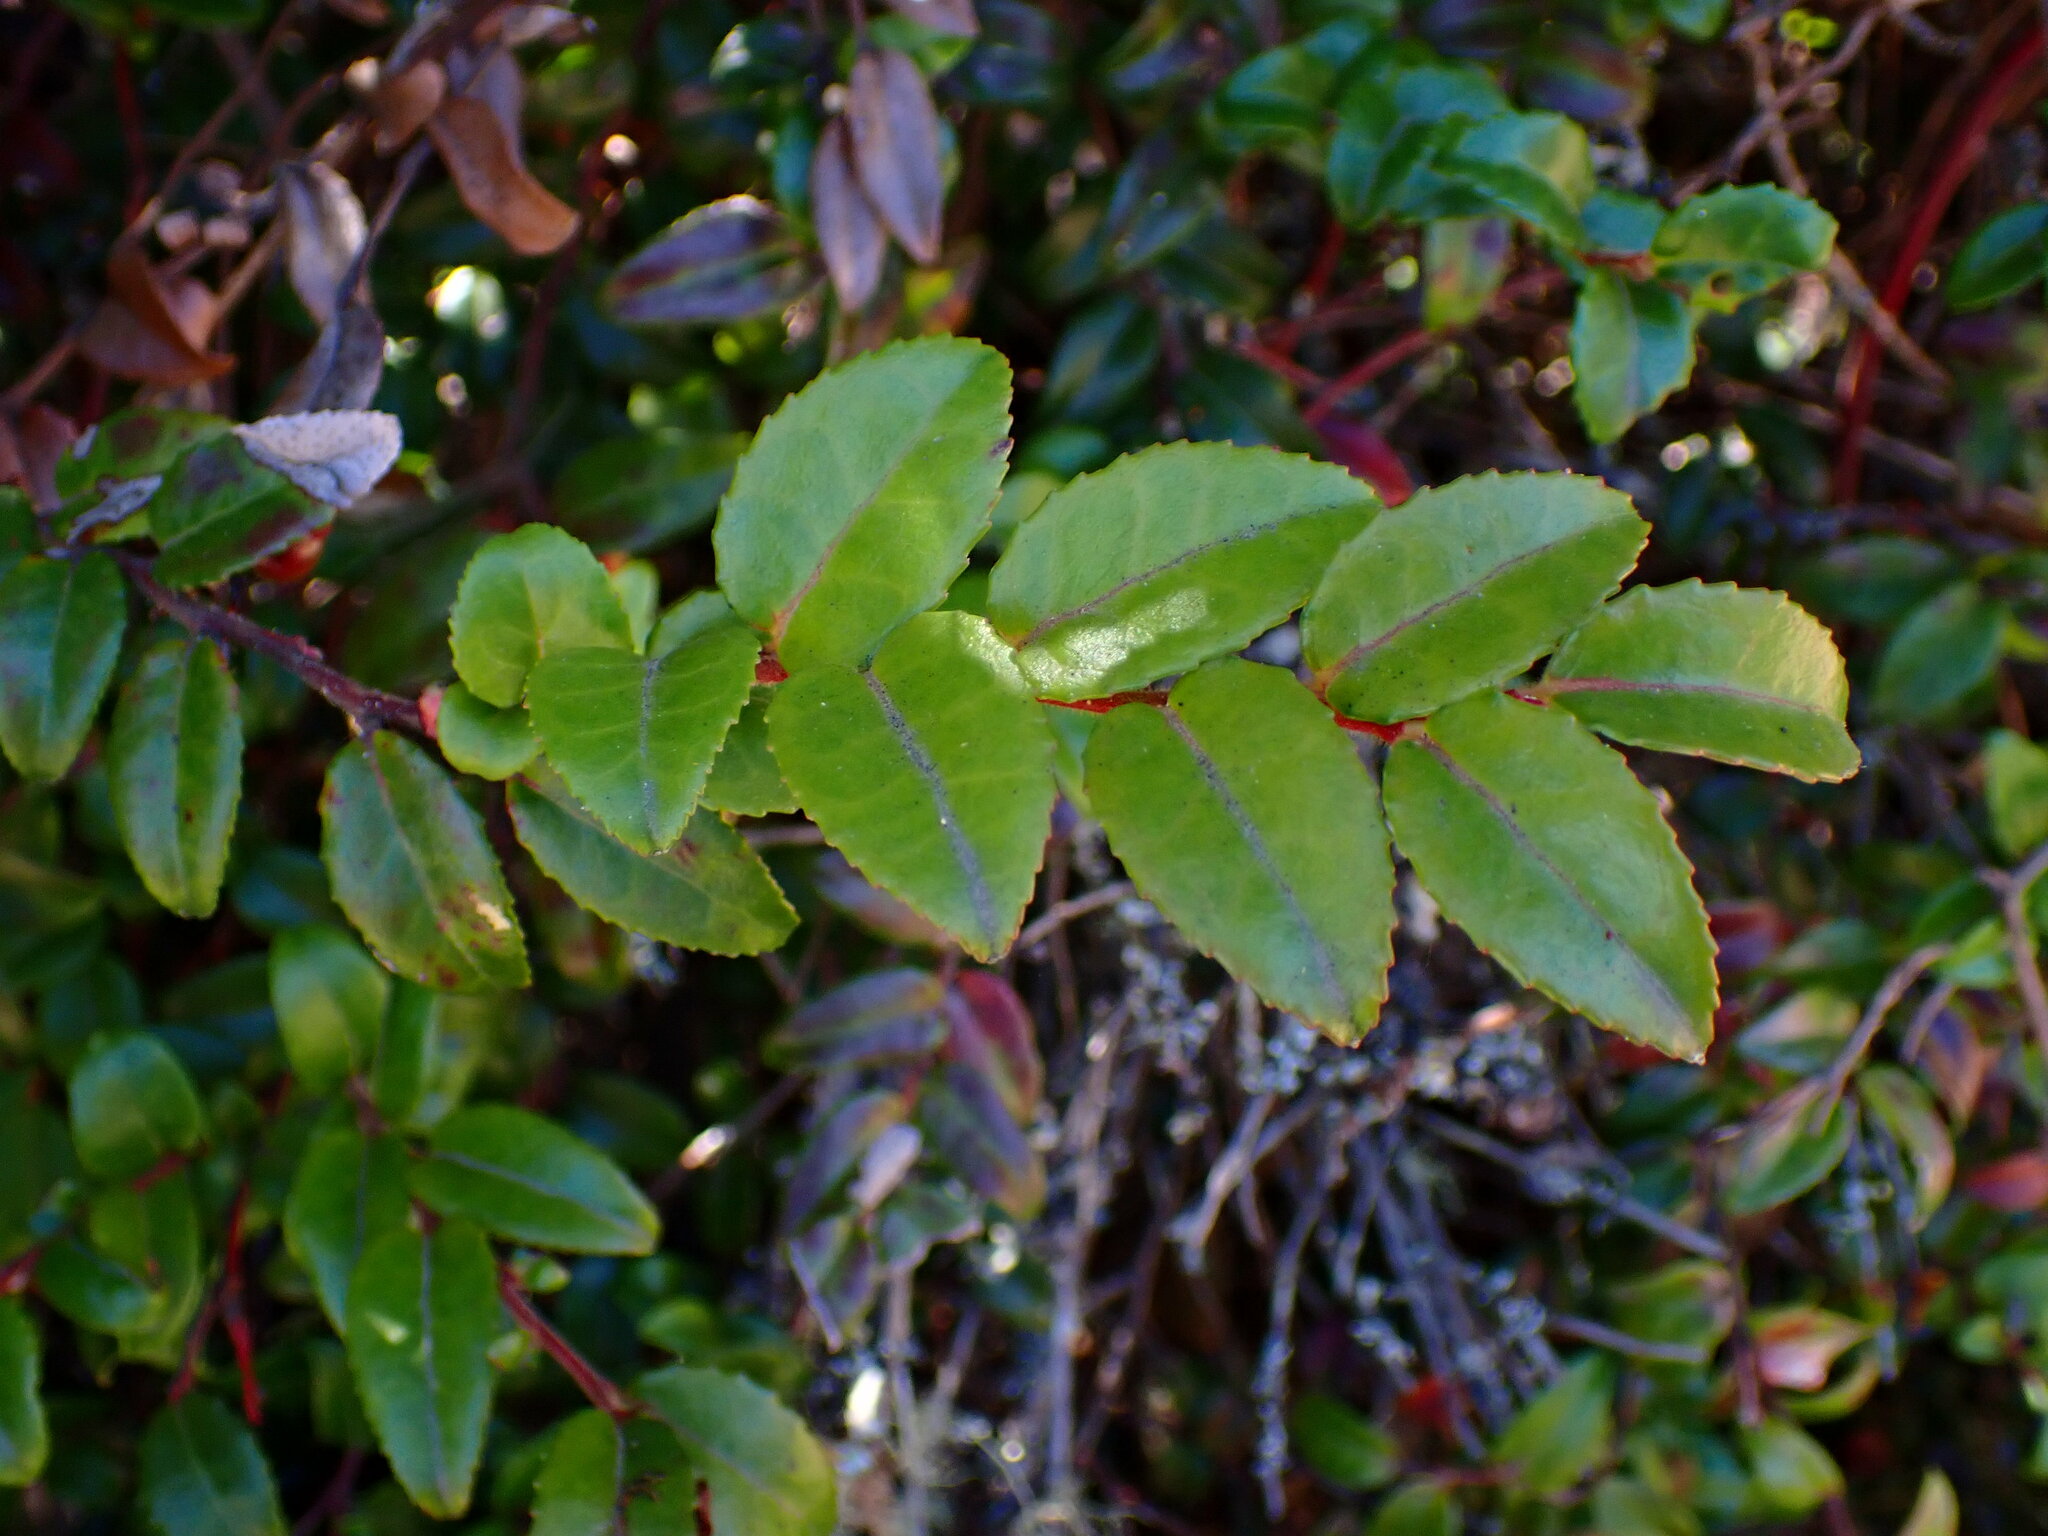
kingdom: Plantae
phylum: Tracheophyta
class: Magnoliopsida
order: Ericales
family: Ericaceae
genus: Vaccinium
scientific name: Vaccinium ovatum
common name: California-huckleberry
